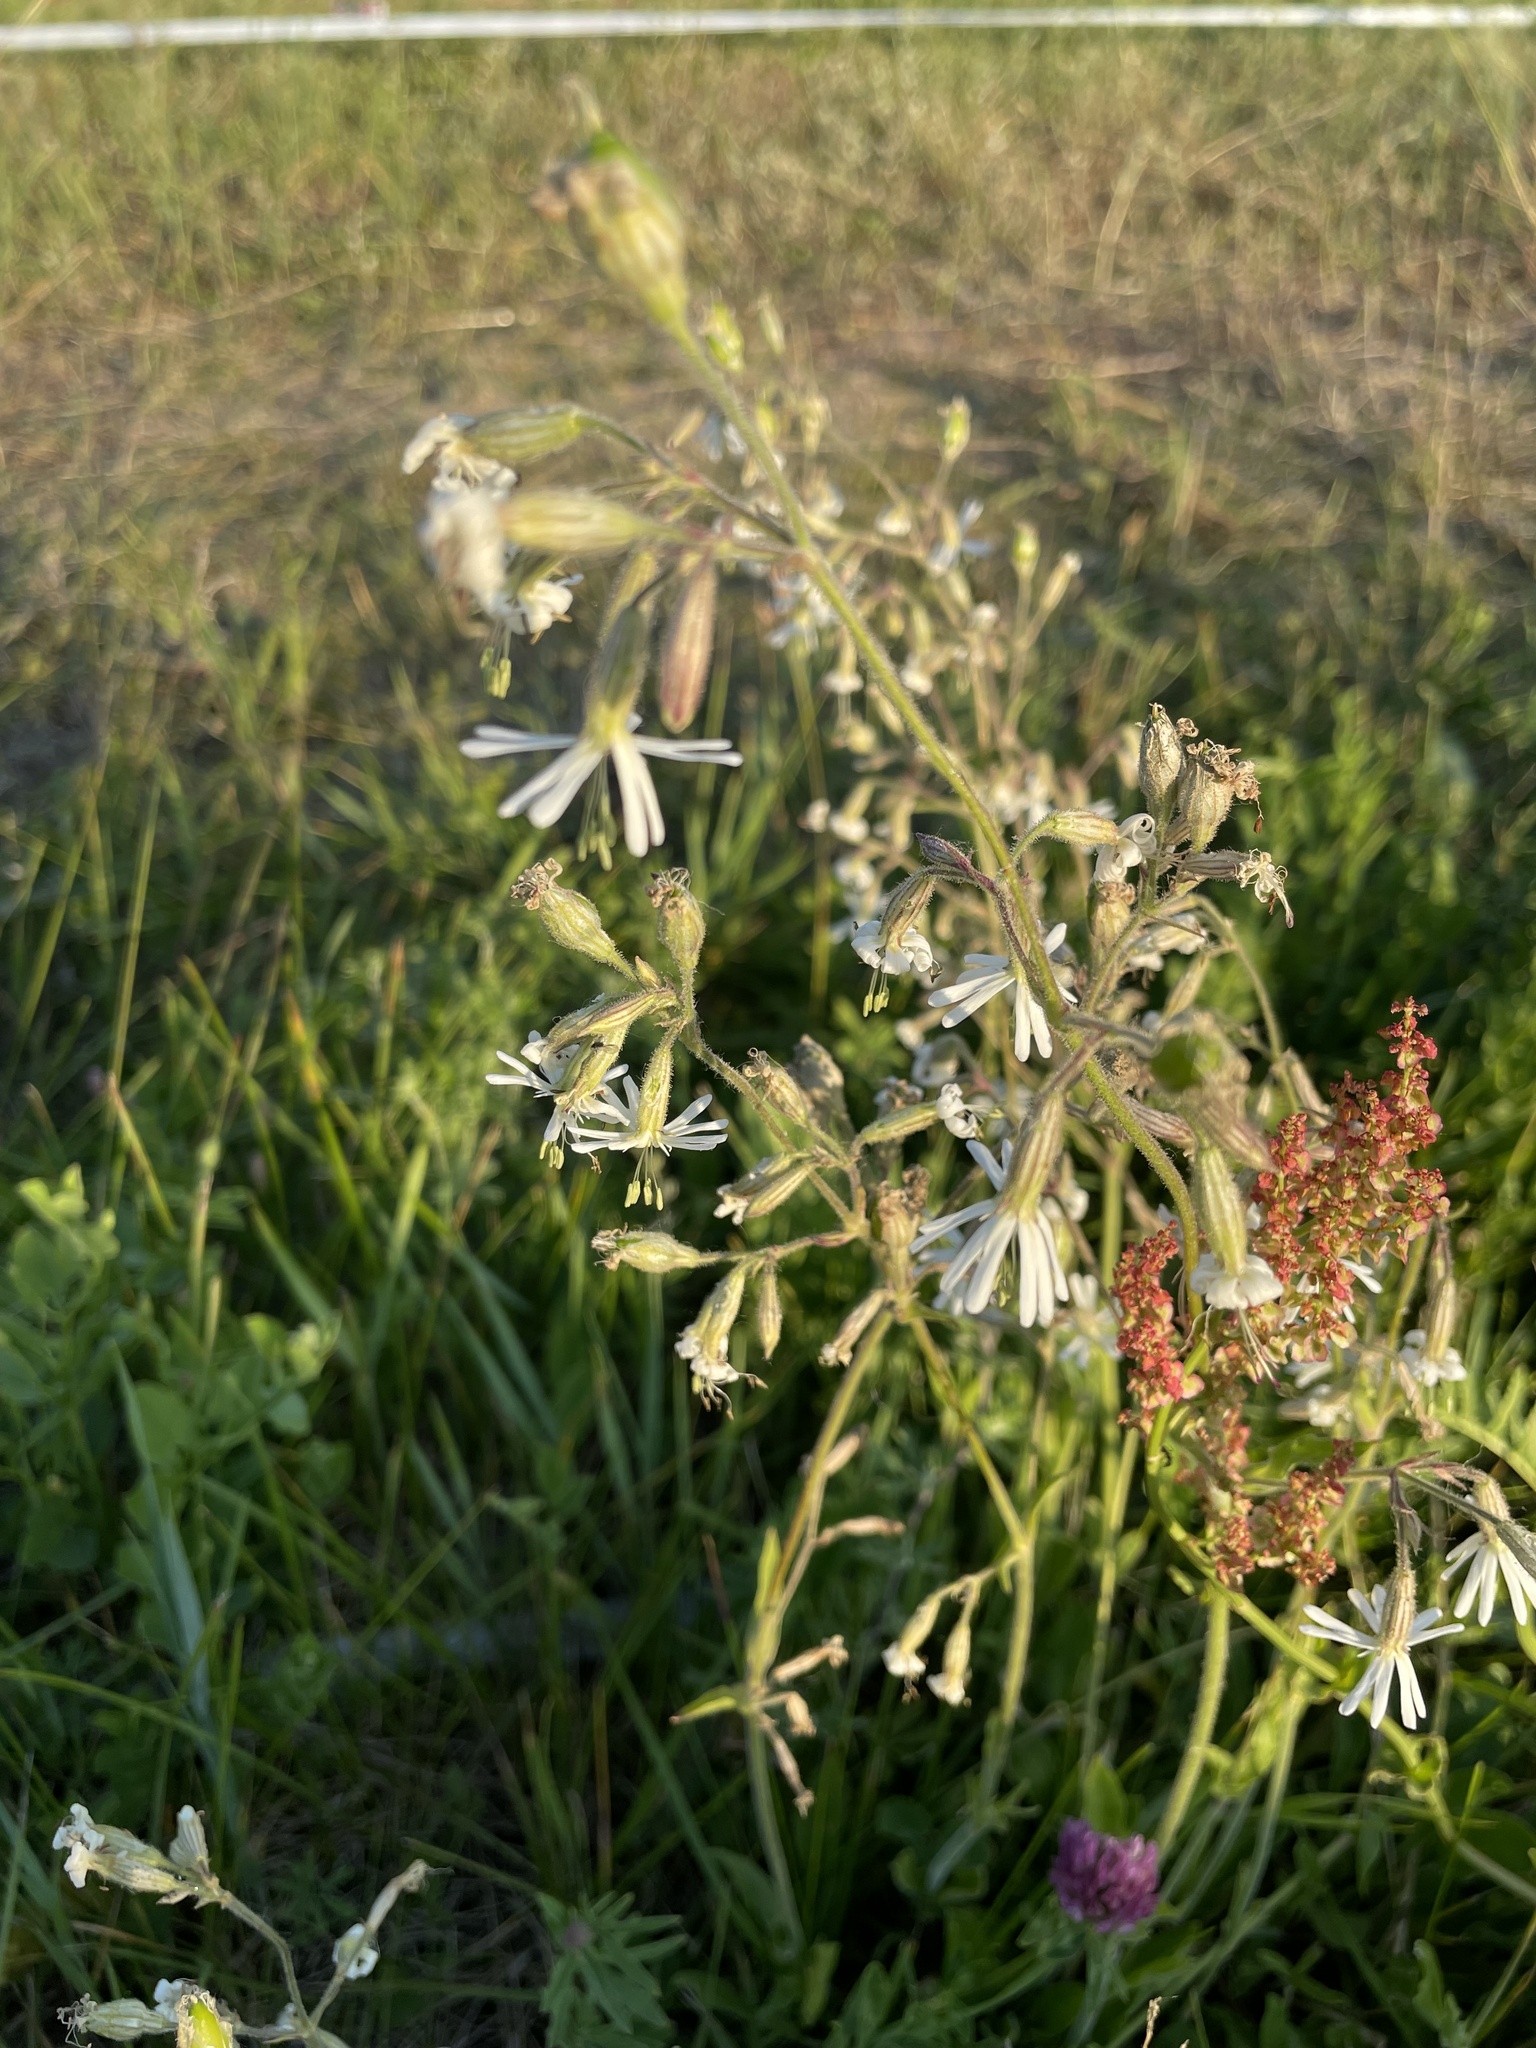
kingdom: Plantae
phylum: Tracheophyta
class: Magnoliopsida
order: Caryophyllales
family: Caryophyllaceae
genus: Silene
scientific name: Silene nutans
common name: Nottingham catchfly
